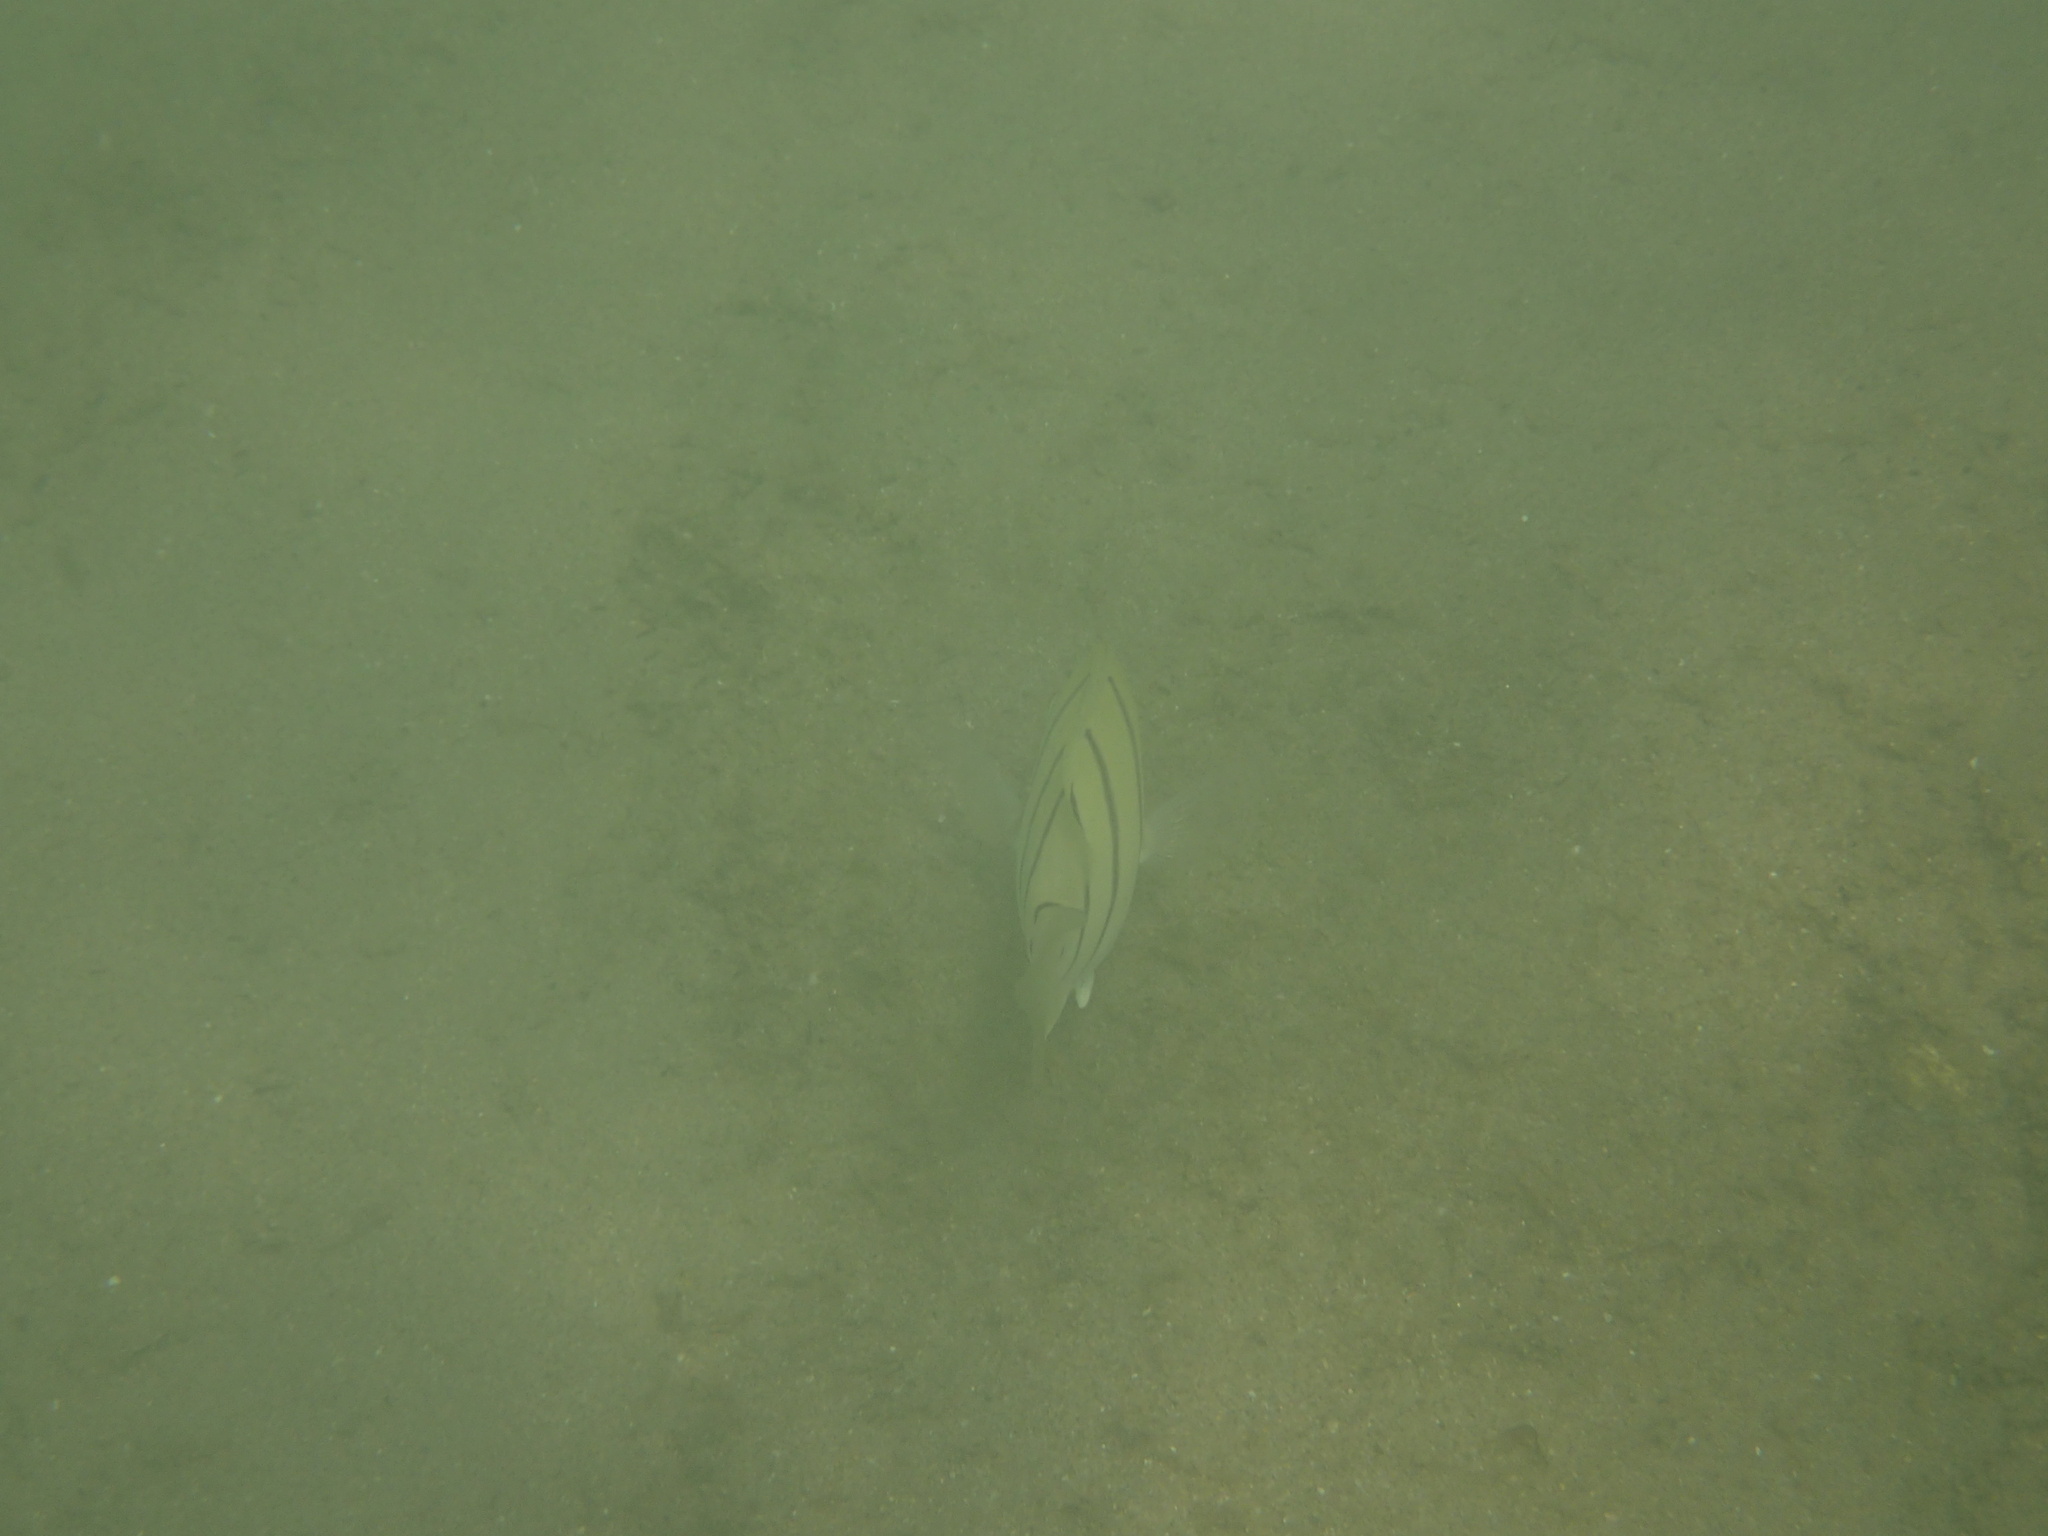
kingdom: Animalia
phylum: Chordata
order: Perciformes
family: Acanthuridae
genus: Acanthurus
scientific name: Acanthurus triostegus
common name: Convict surgeonfish
